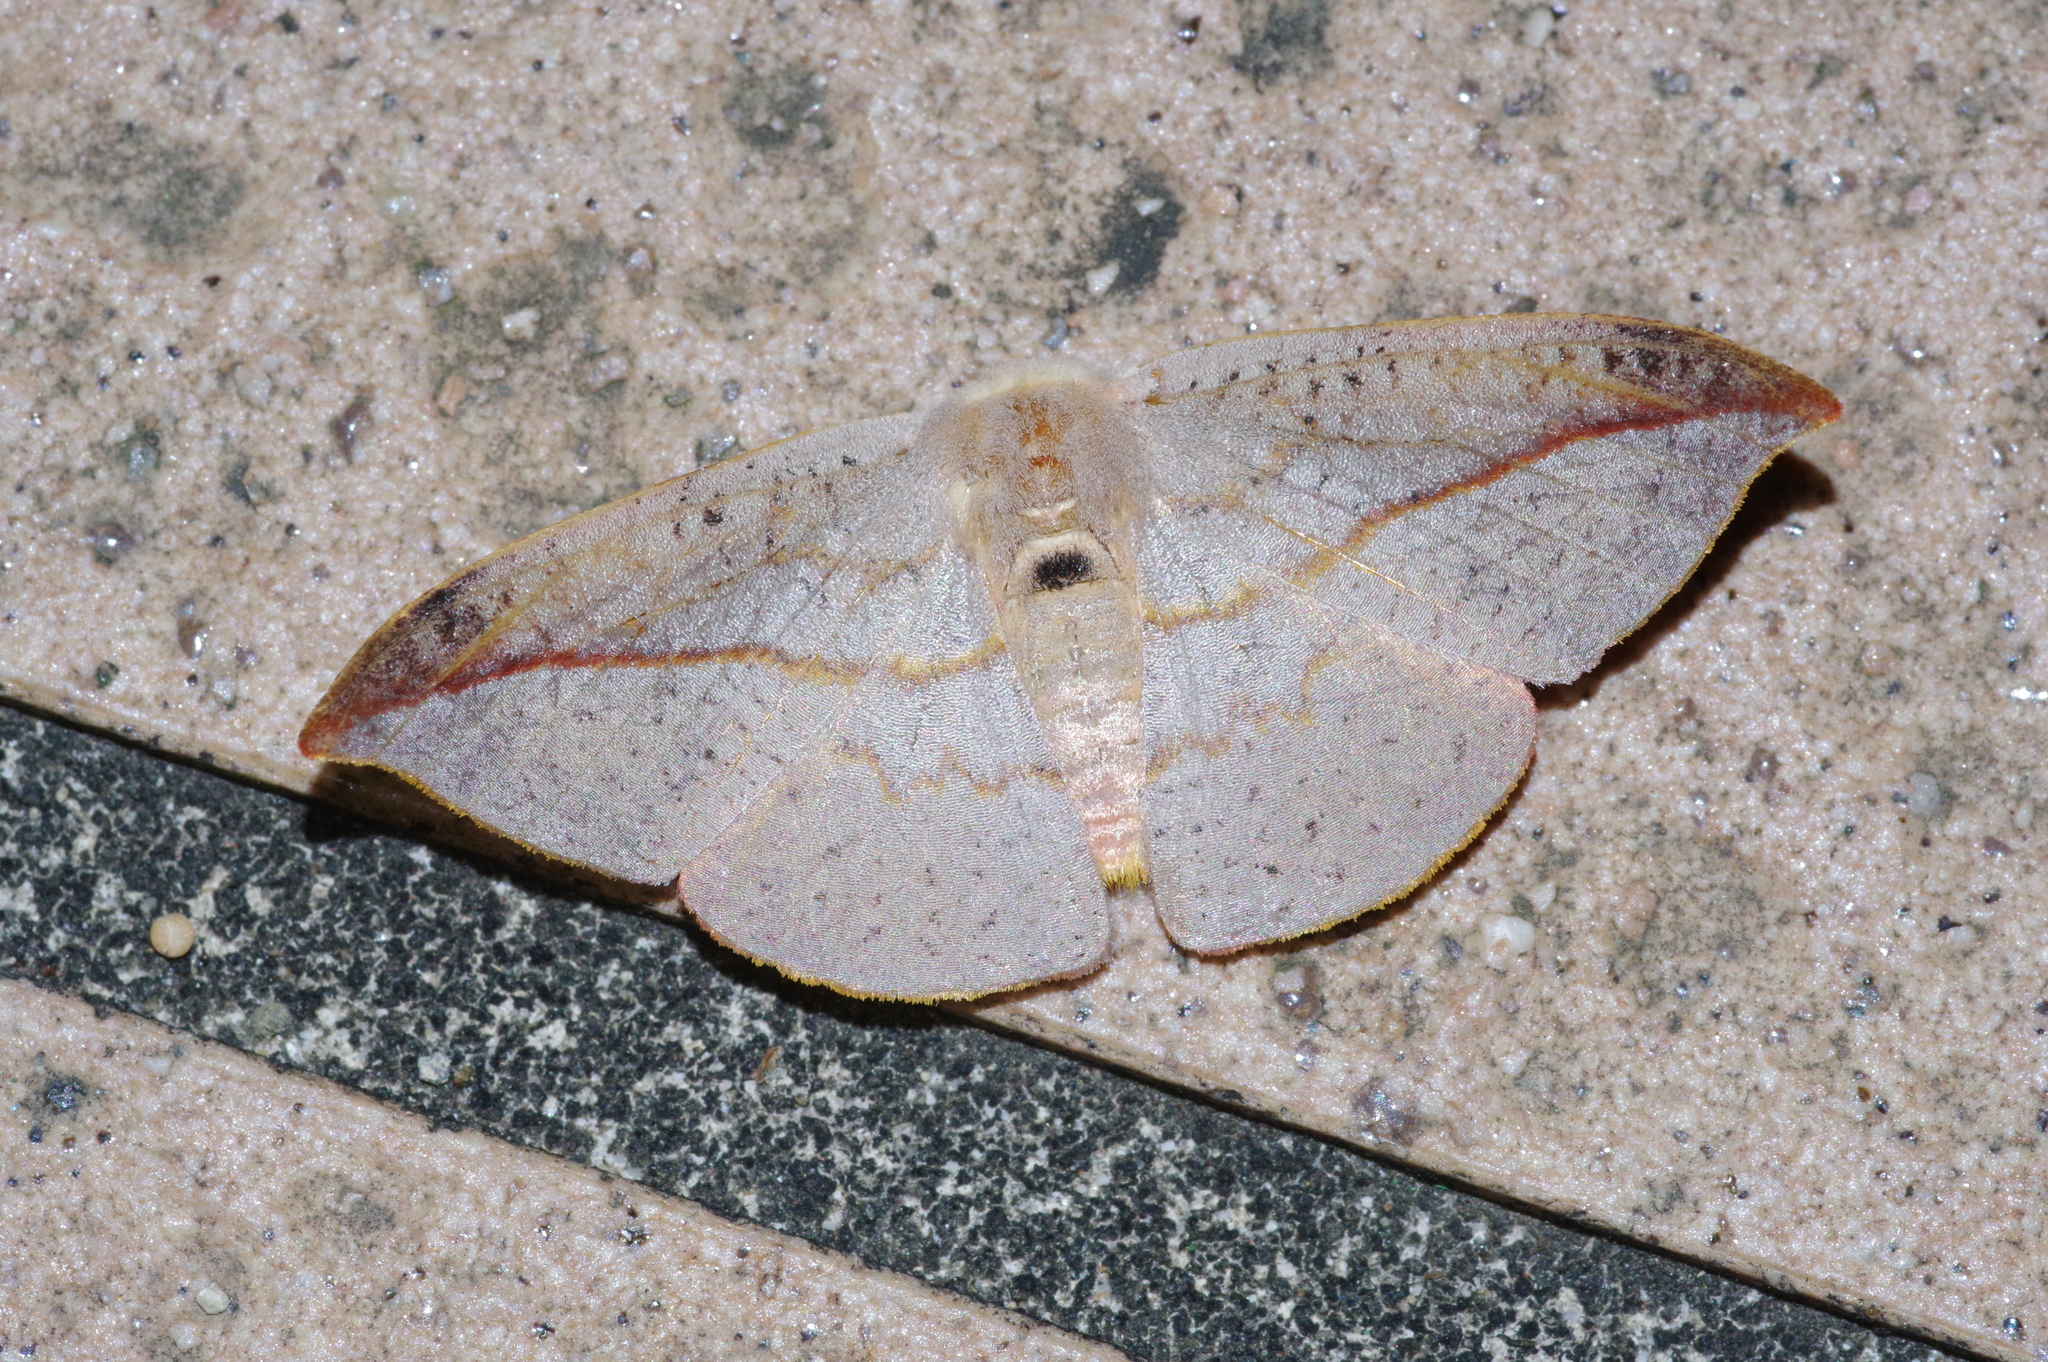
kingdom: Animalia
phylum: Arthropoda
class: Insecta
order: Lepidoptera
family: Drepanidae
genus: Oreta
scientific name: Oreta insignis
